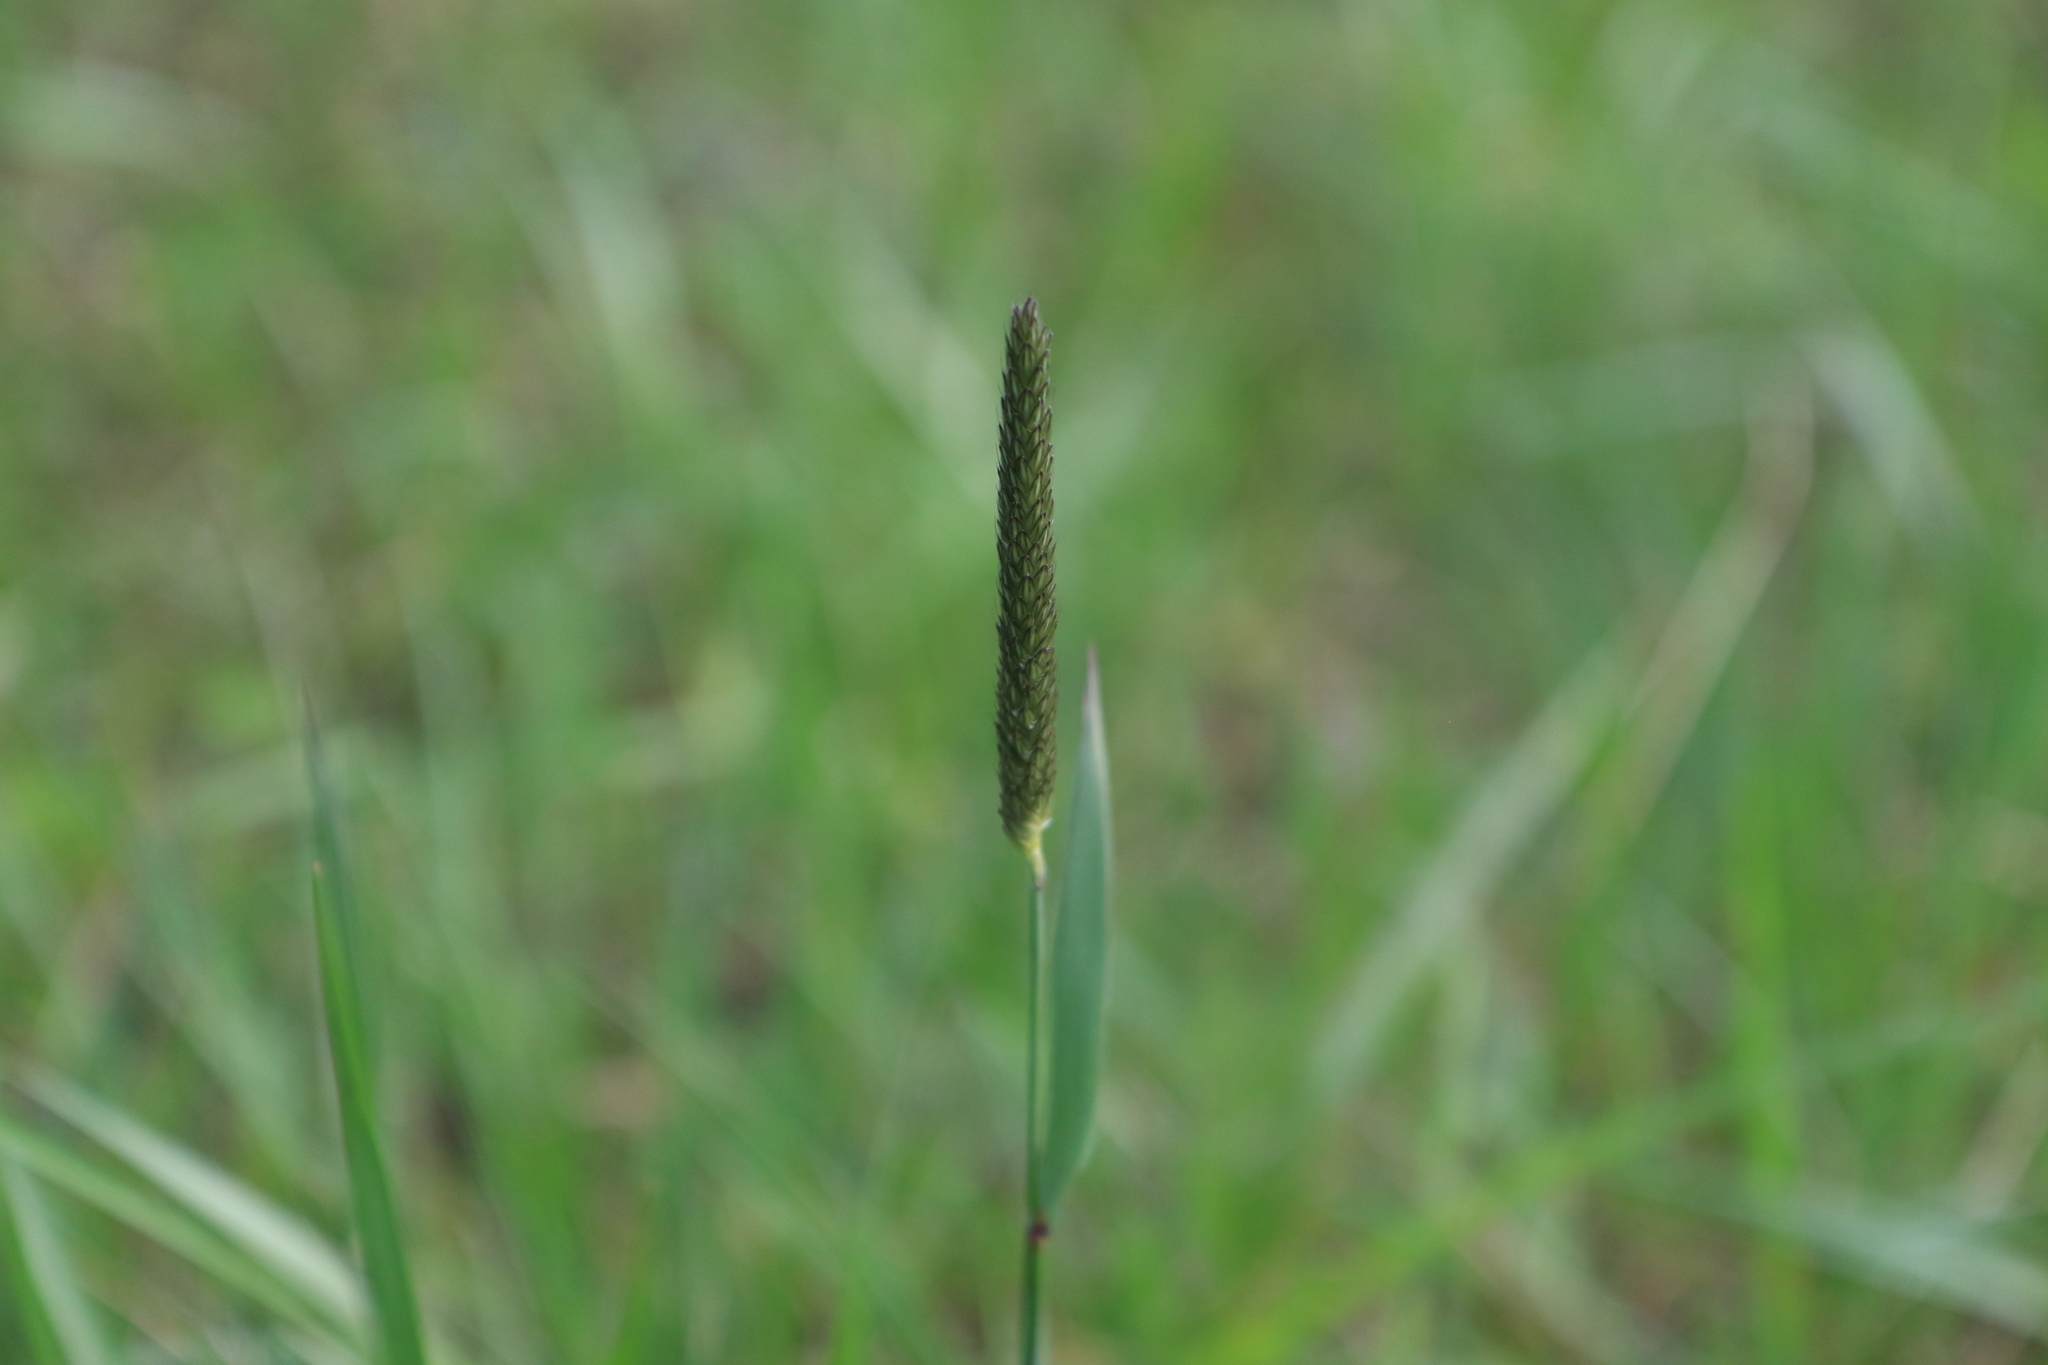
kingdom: Plantae
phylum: Tracheophyta
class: Liliopsida
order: Poales
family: Poaceae
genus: Alopecurus
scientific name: Alopecurus pratensis
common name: Meadow foxtail
